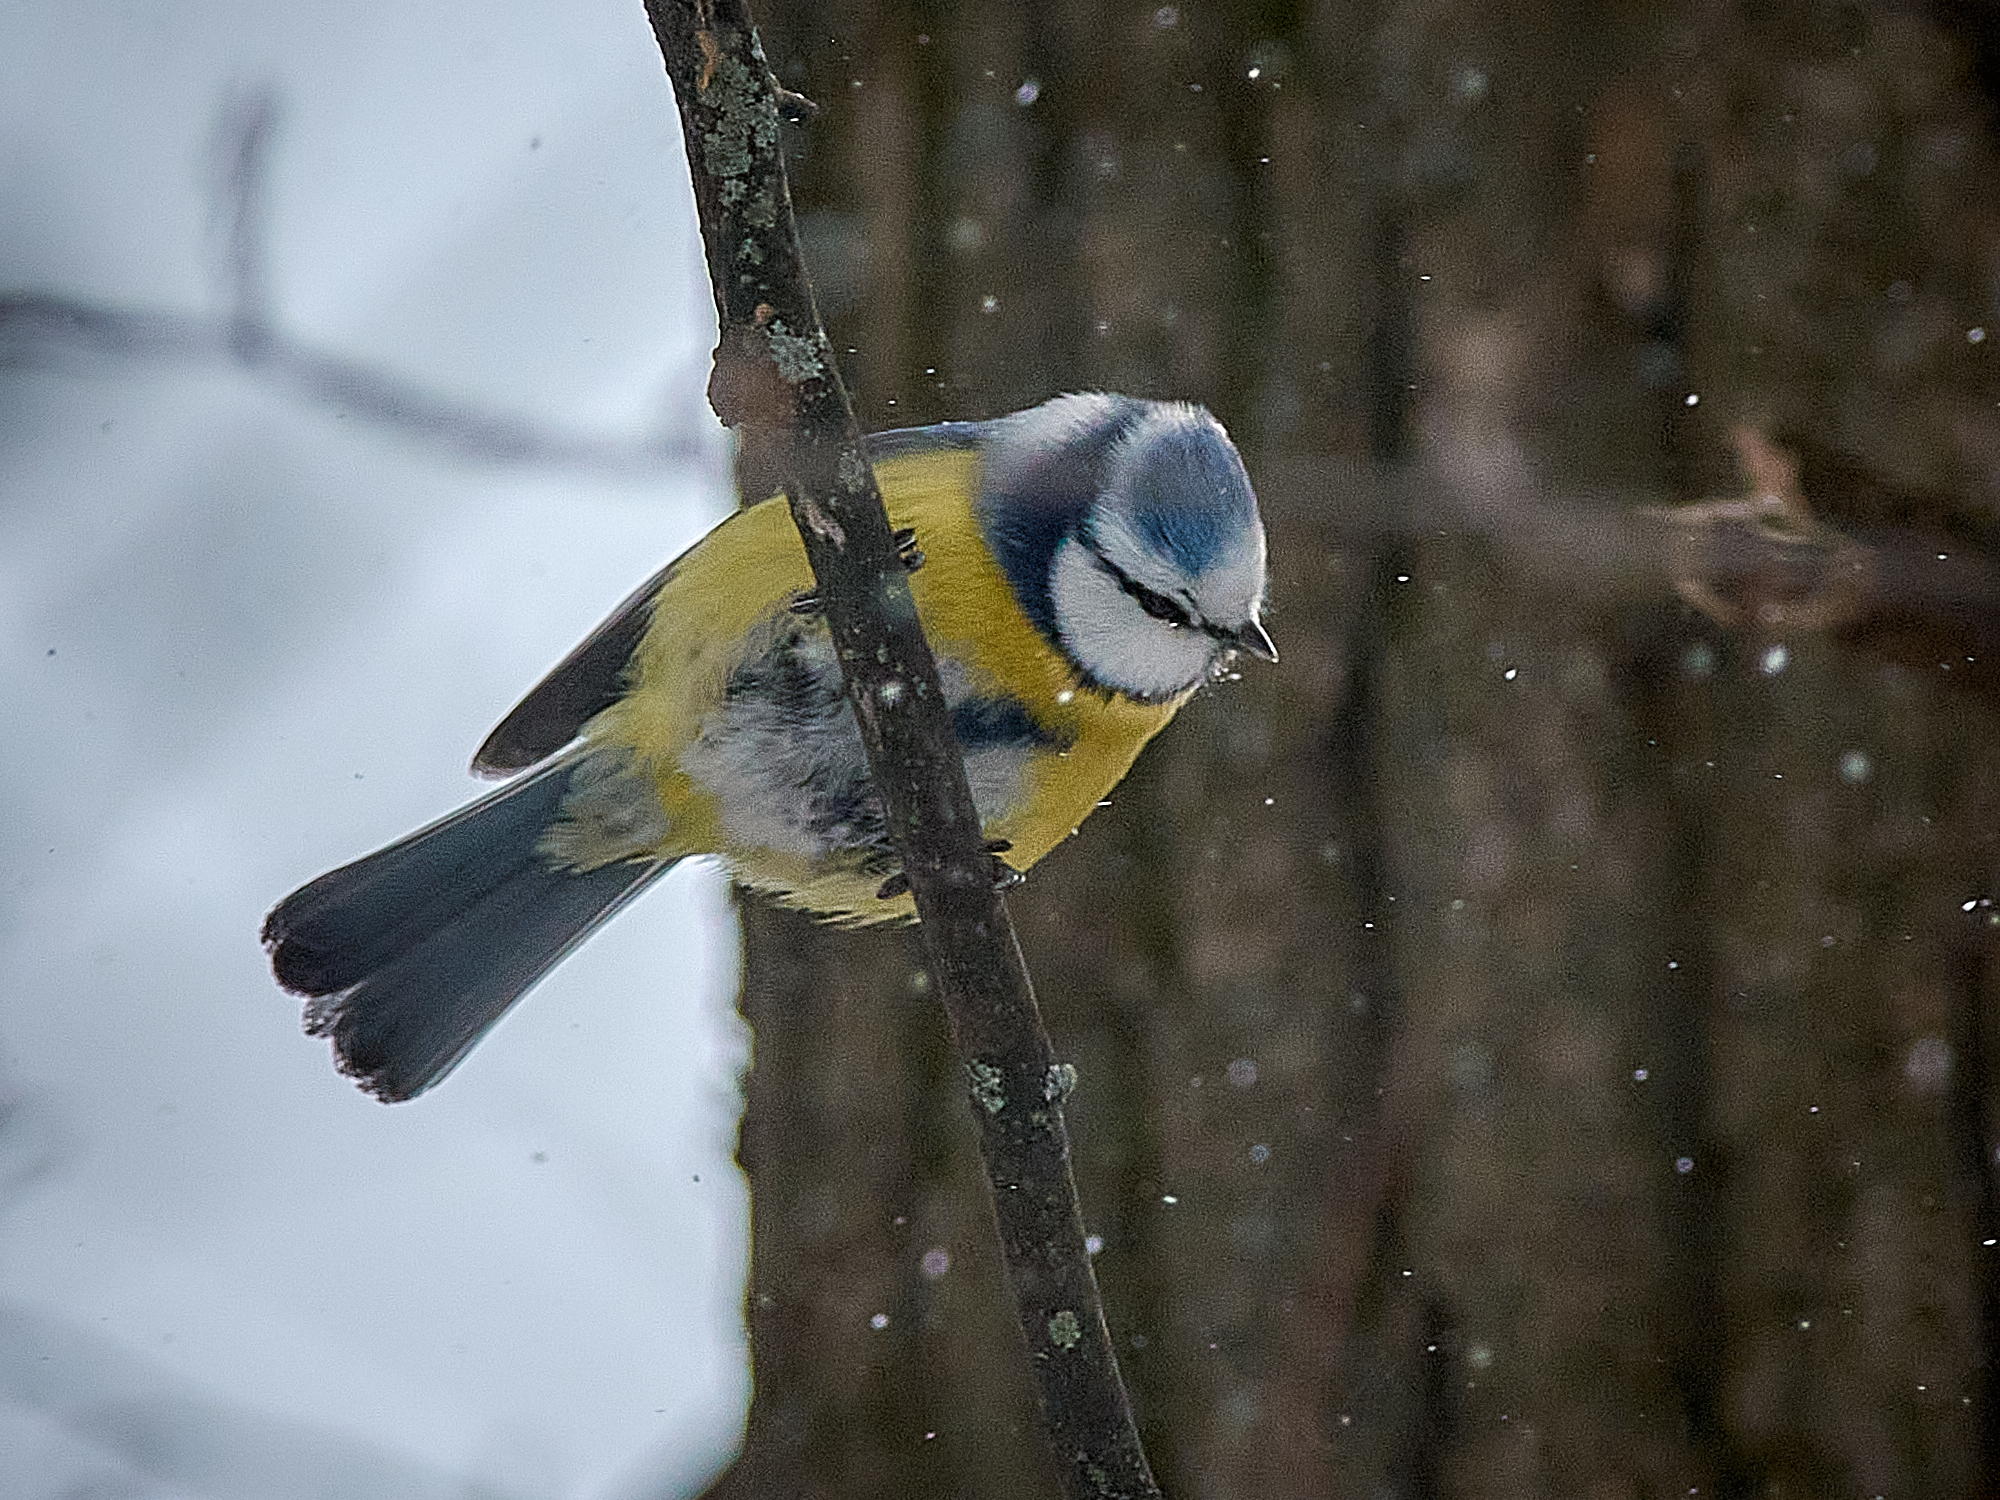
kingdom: Animalia
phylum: Chordata
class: Aves
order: Passeriformes
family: Paridae
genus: Cyanistes
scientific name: Cyanistes caeruleus
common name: Eurasian blue tit
